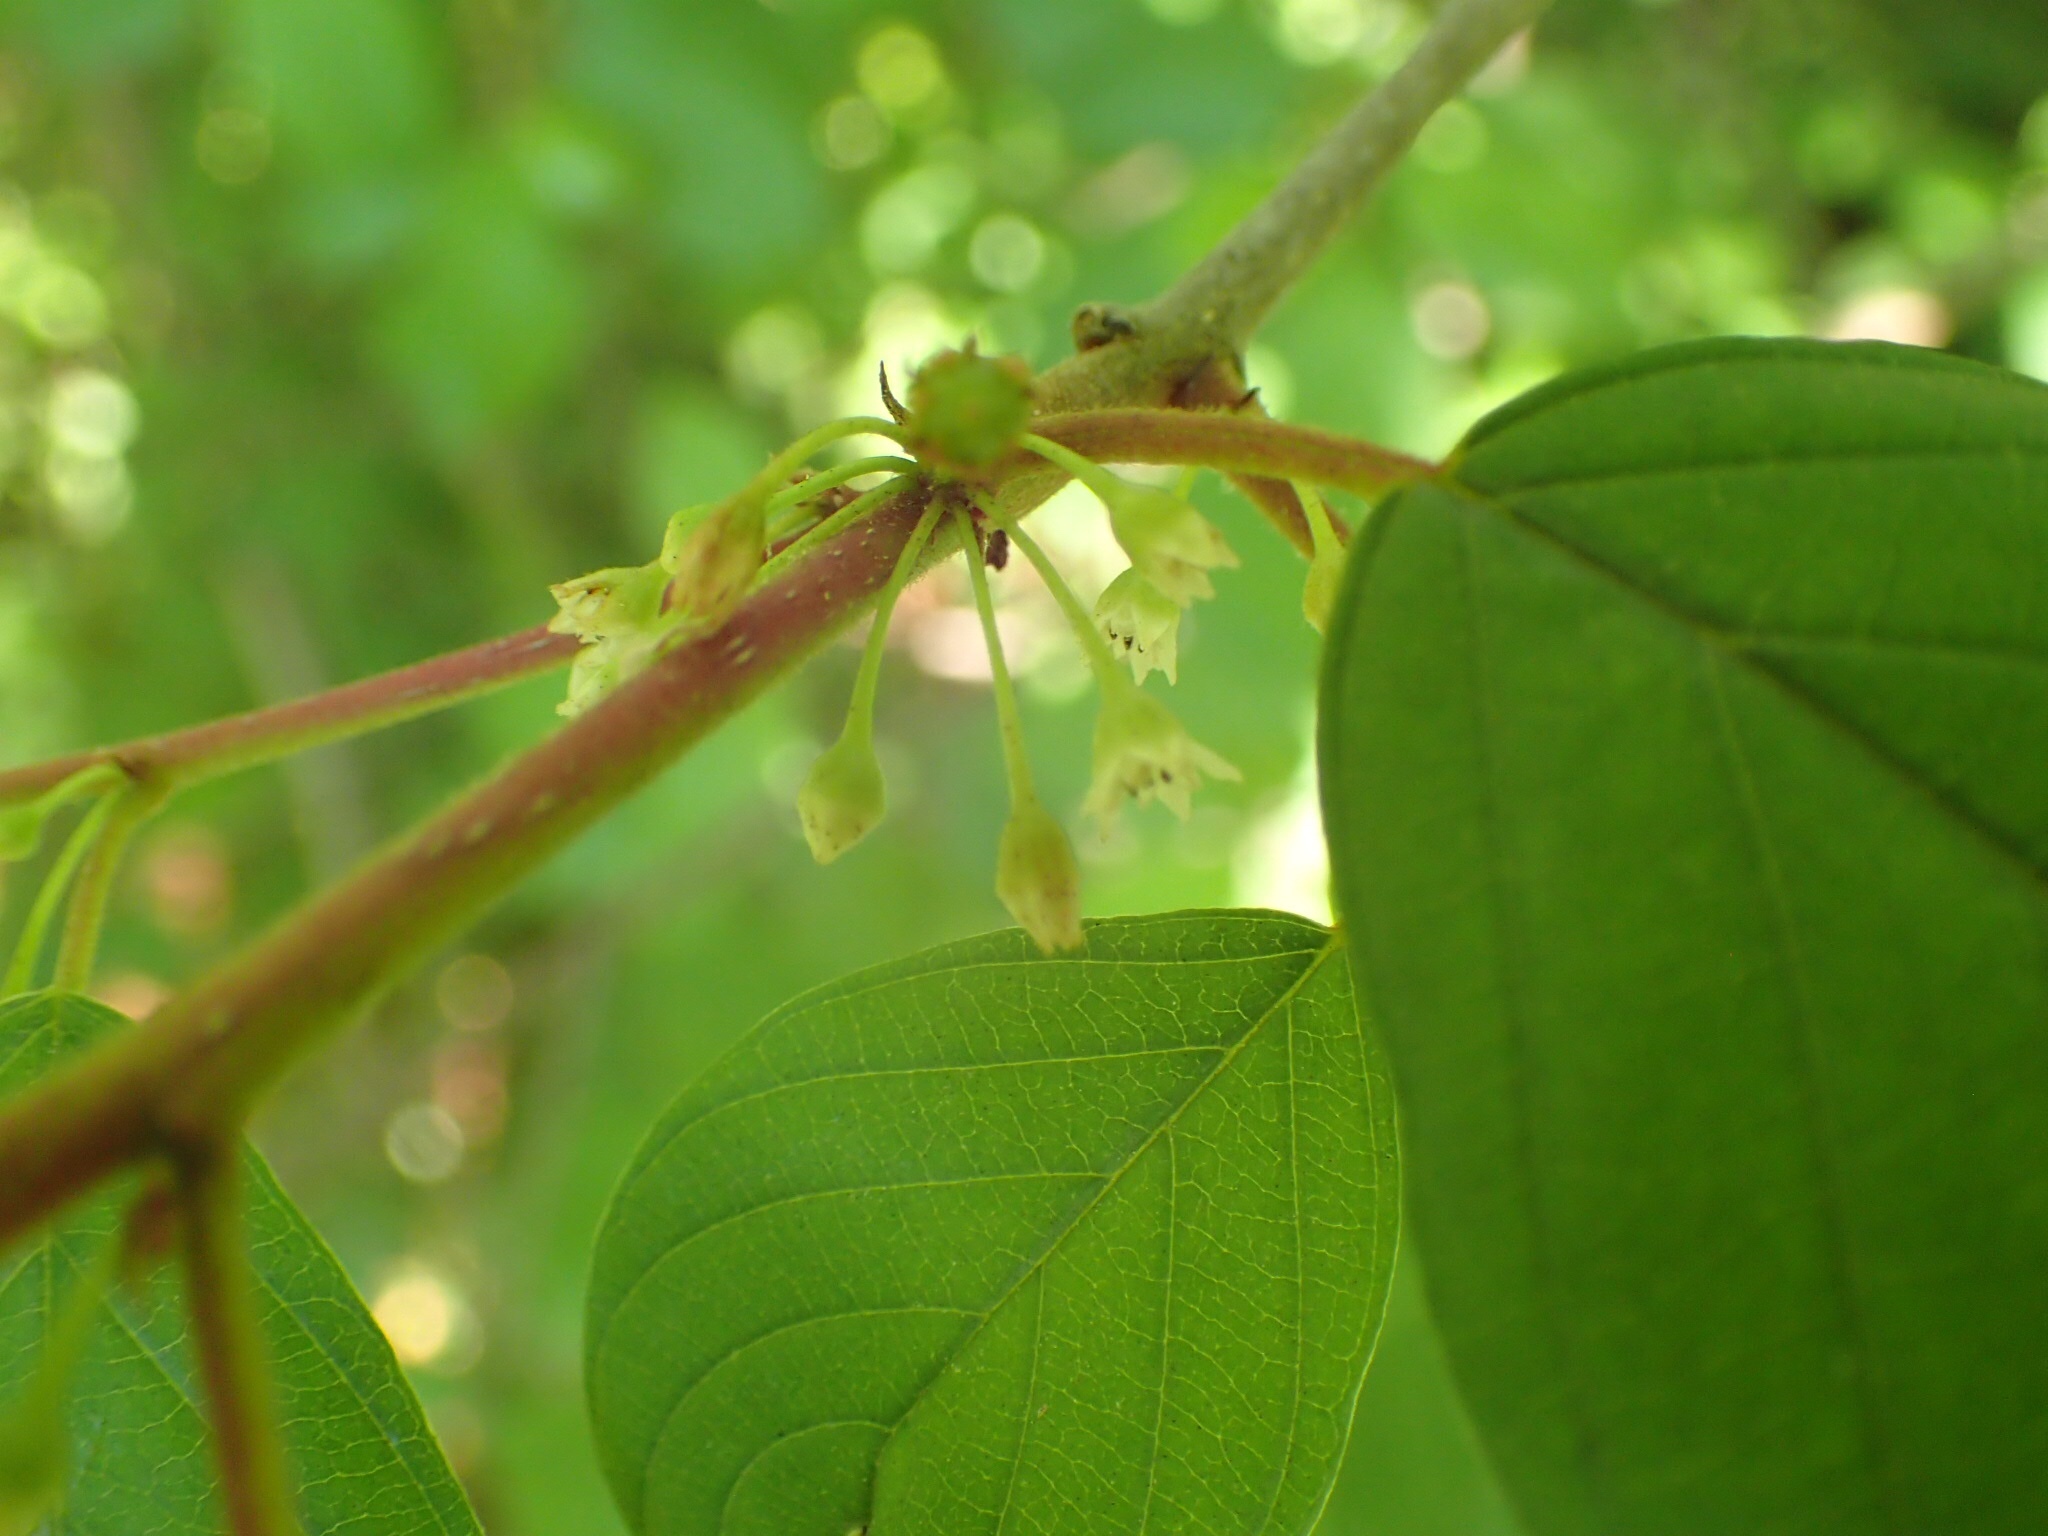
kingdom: Plantae
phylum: Tracheophyta
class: Magnoliopsida
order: Rosales
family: Rhamnaceae
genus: Frangula
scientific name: Frangula alnus
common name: Alder buckthorn
